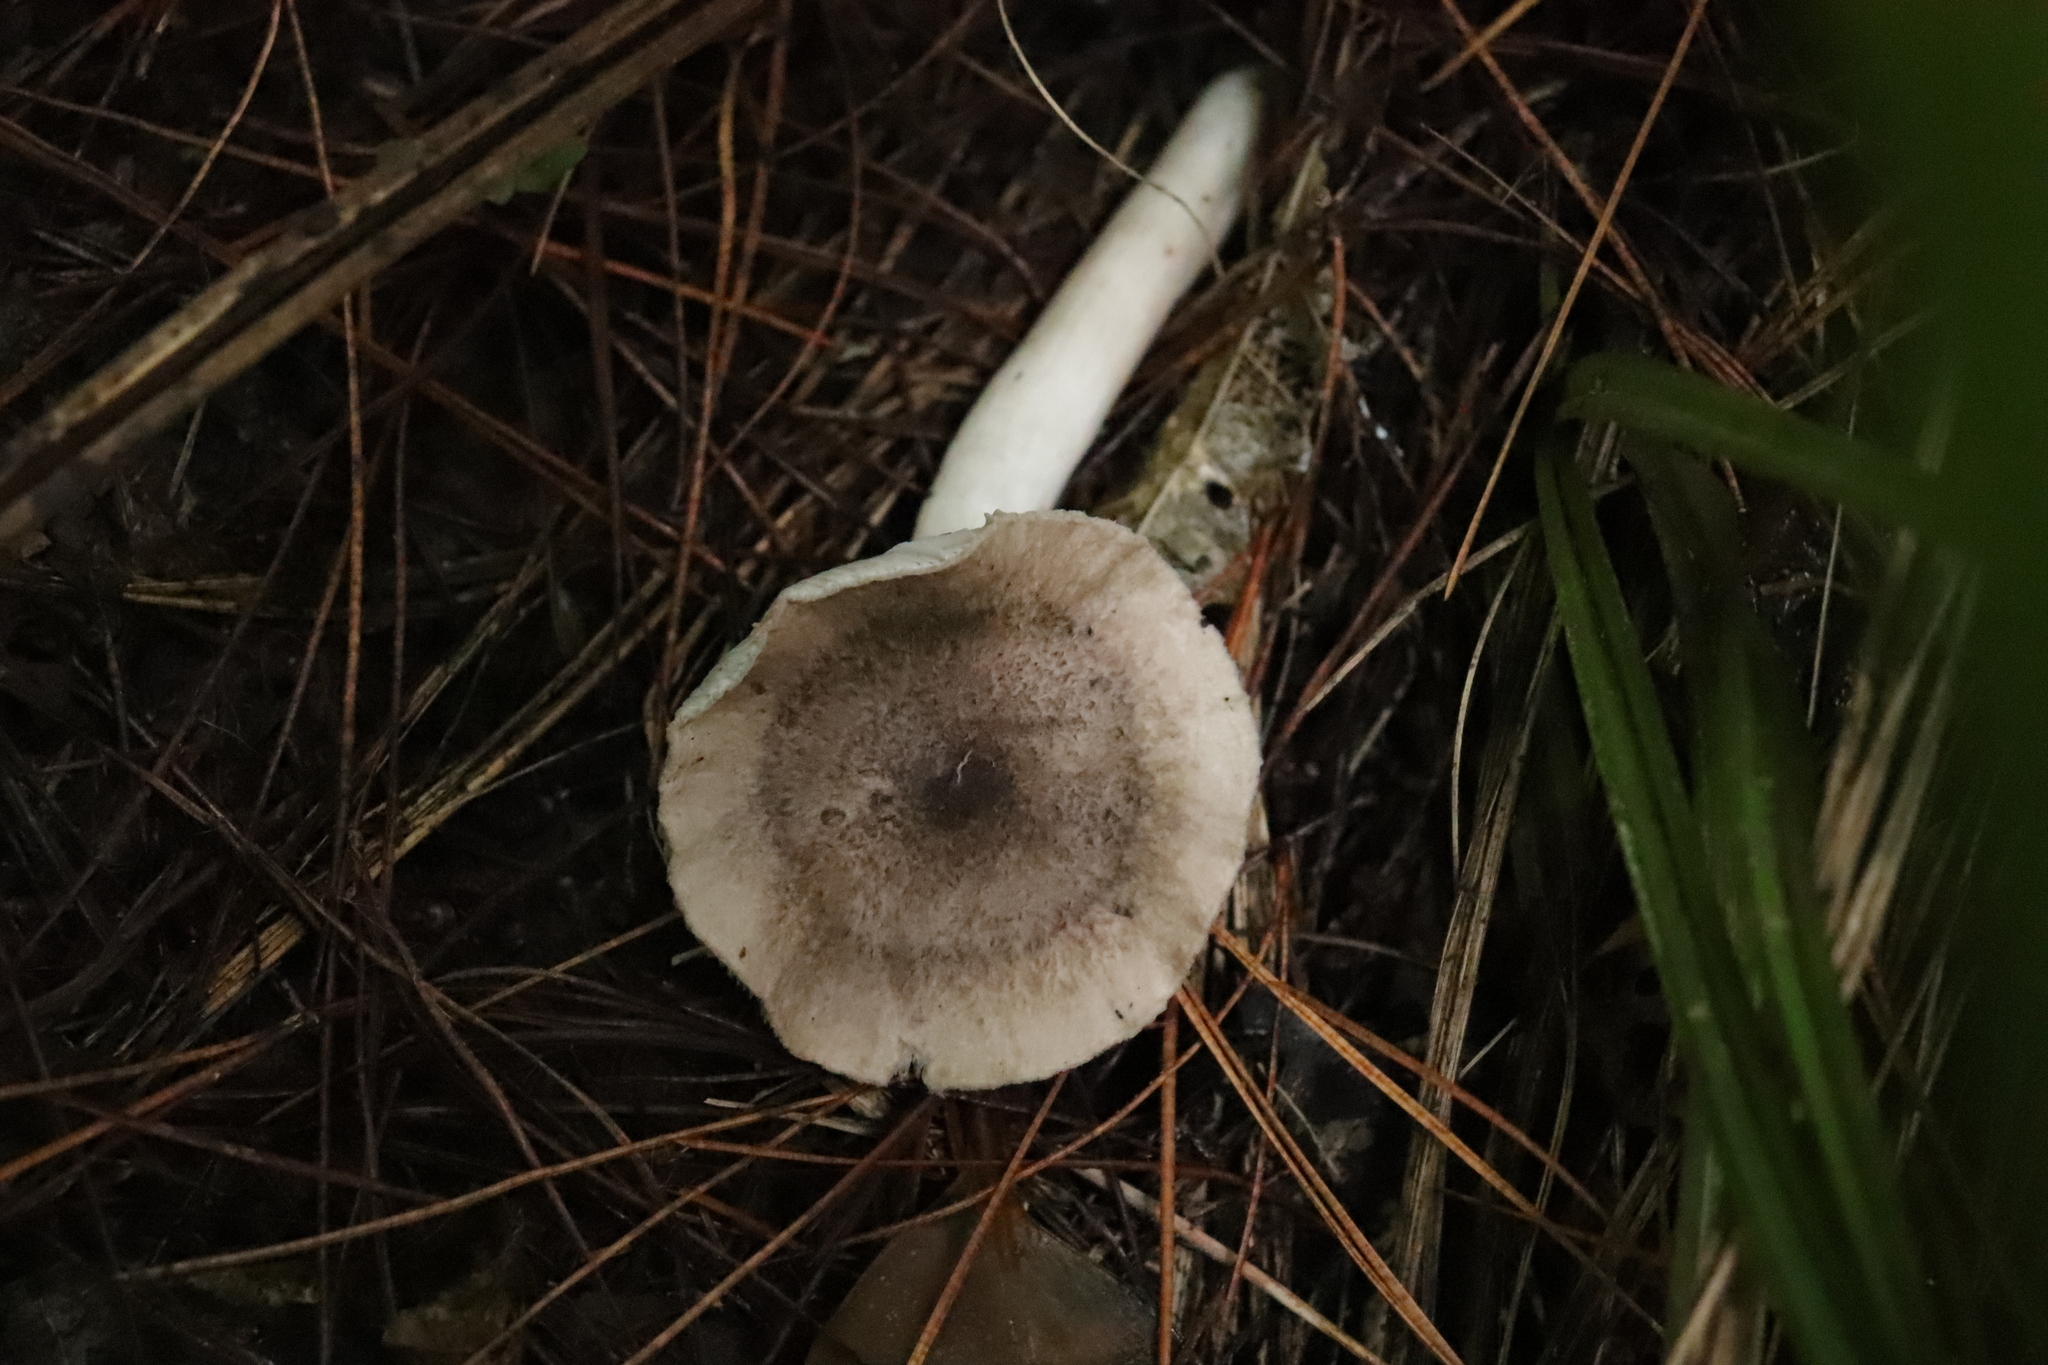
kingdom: Fungi
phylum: Basidiomycota
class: Agaricomycetes
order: Agaricales
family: Tricholomataceae
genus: Tricholoma
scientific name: Tricholoma terreum
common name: Grey knight
